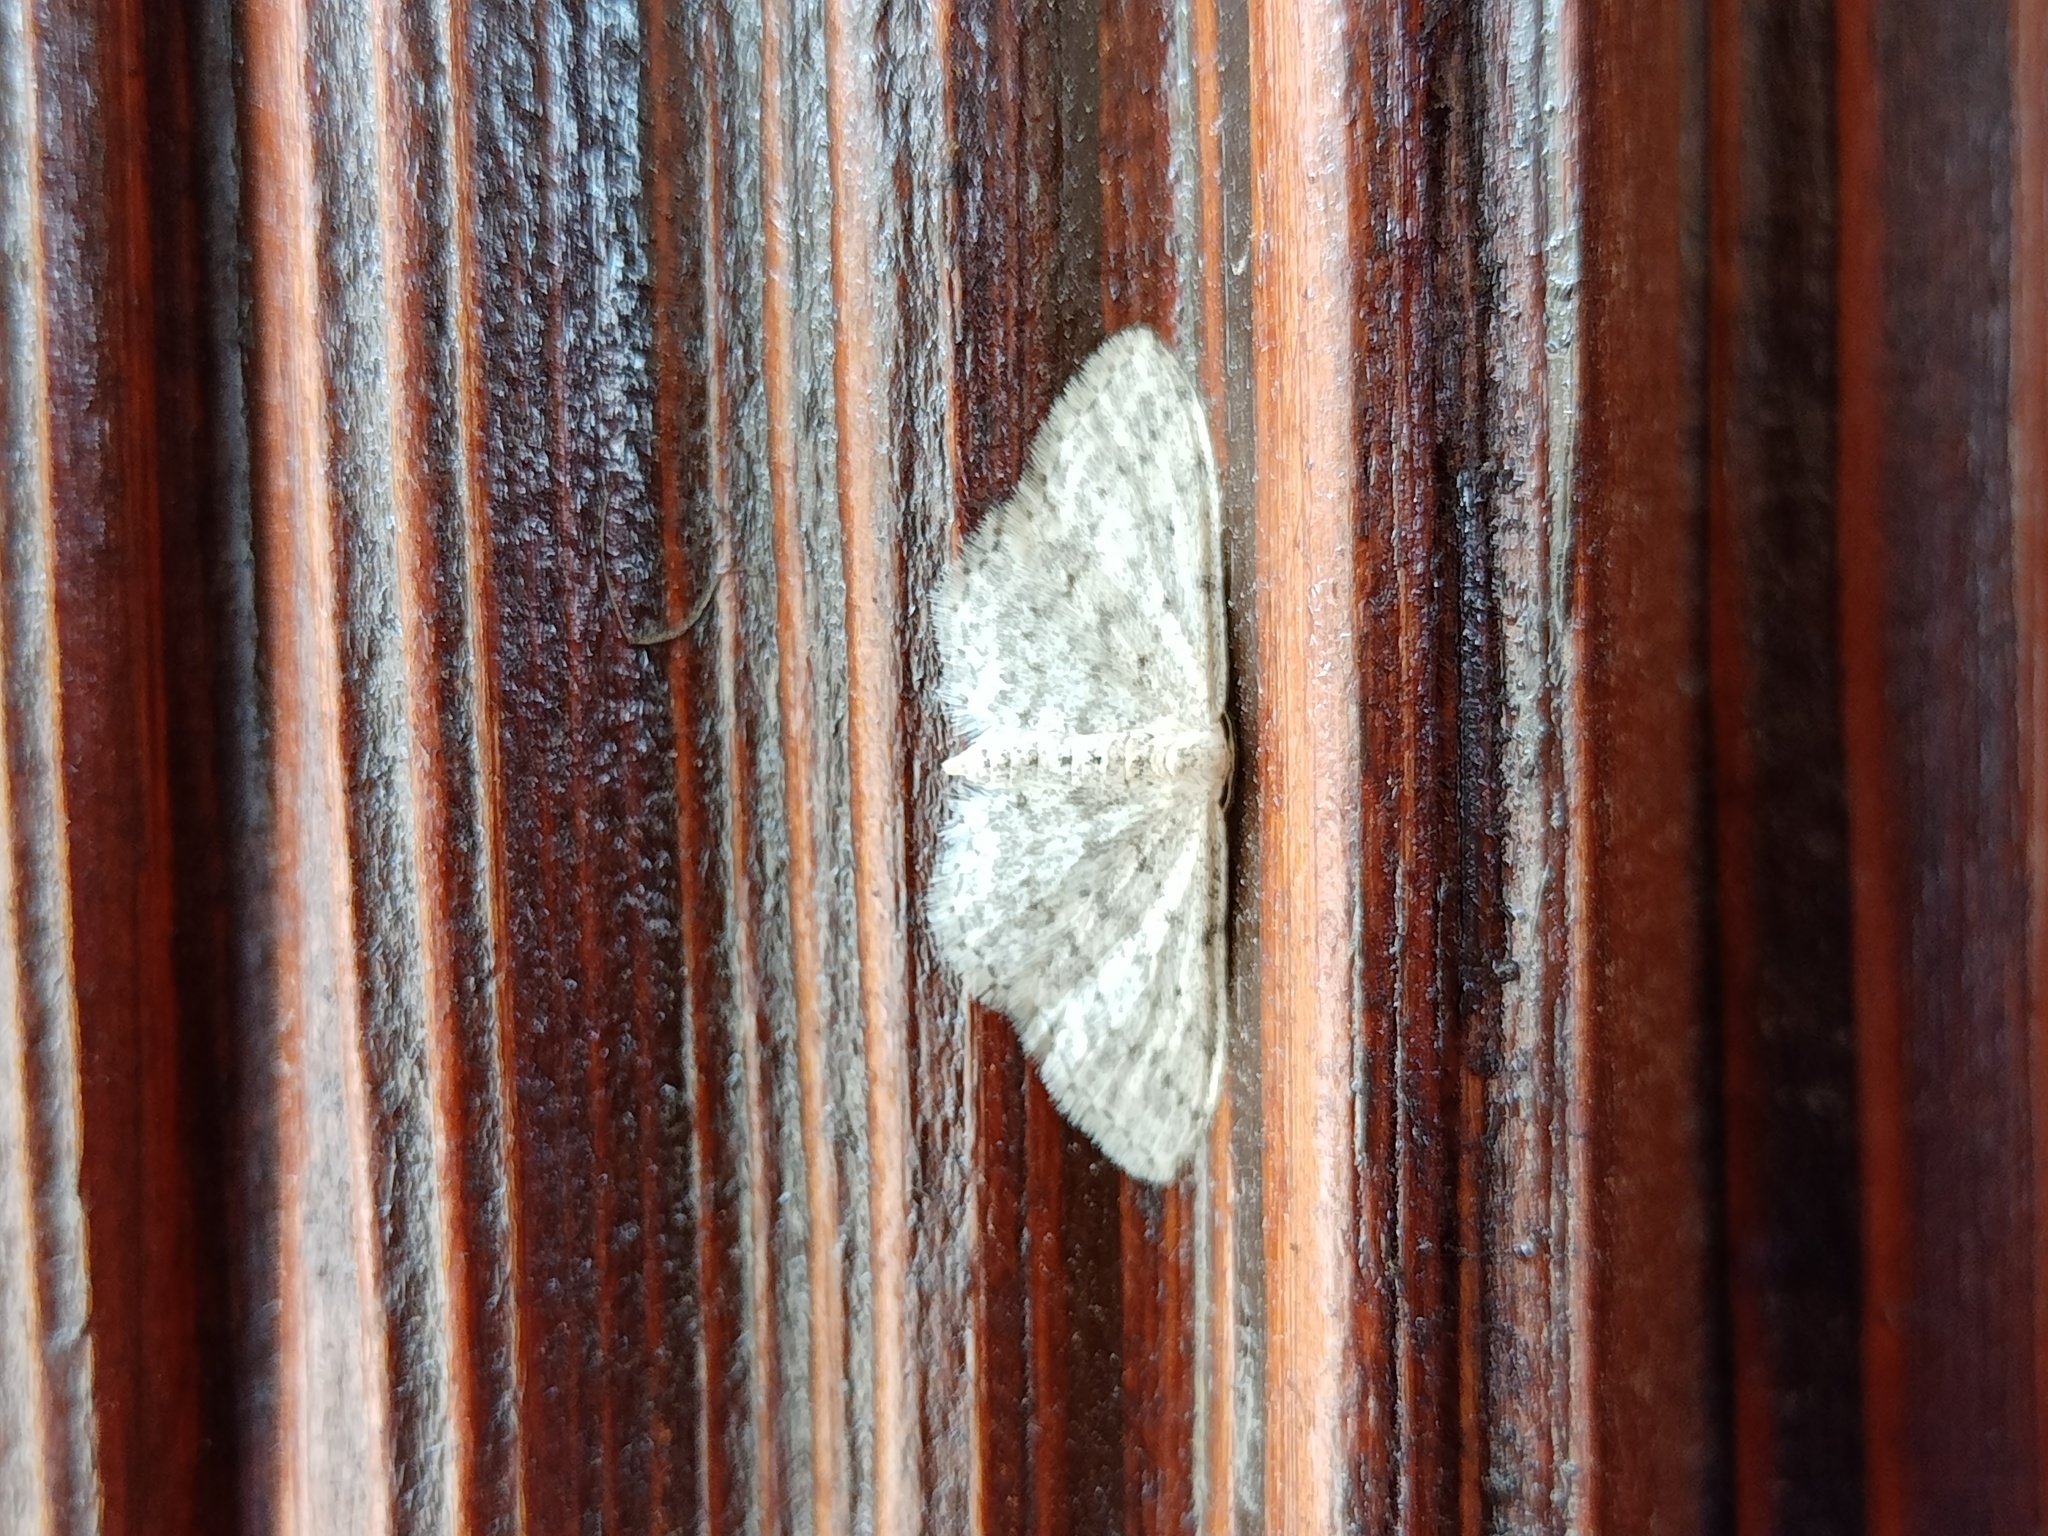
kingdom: Animalia
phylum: Arthropoda
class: Insecta
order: Lepidoptera
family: Geometridae
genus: Idaea
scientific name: Idaea seriata
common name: Small dusty wave
